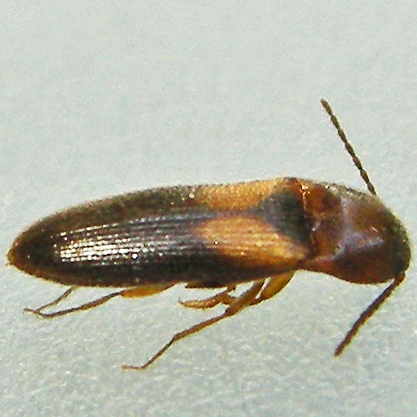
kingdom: Animalia
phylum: Arthropoda
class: Insecta
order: Coleoptera
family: Elateridae
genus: Ampedus
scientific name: Ampedus areolatus
